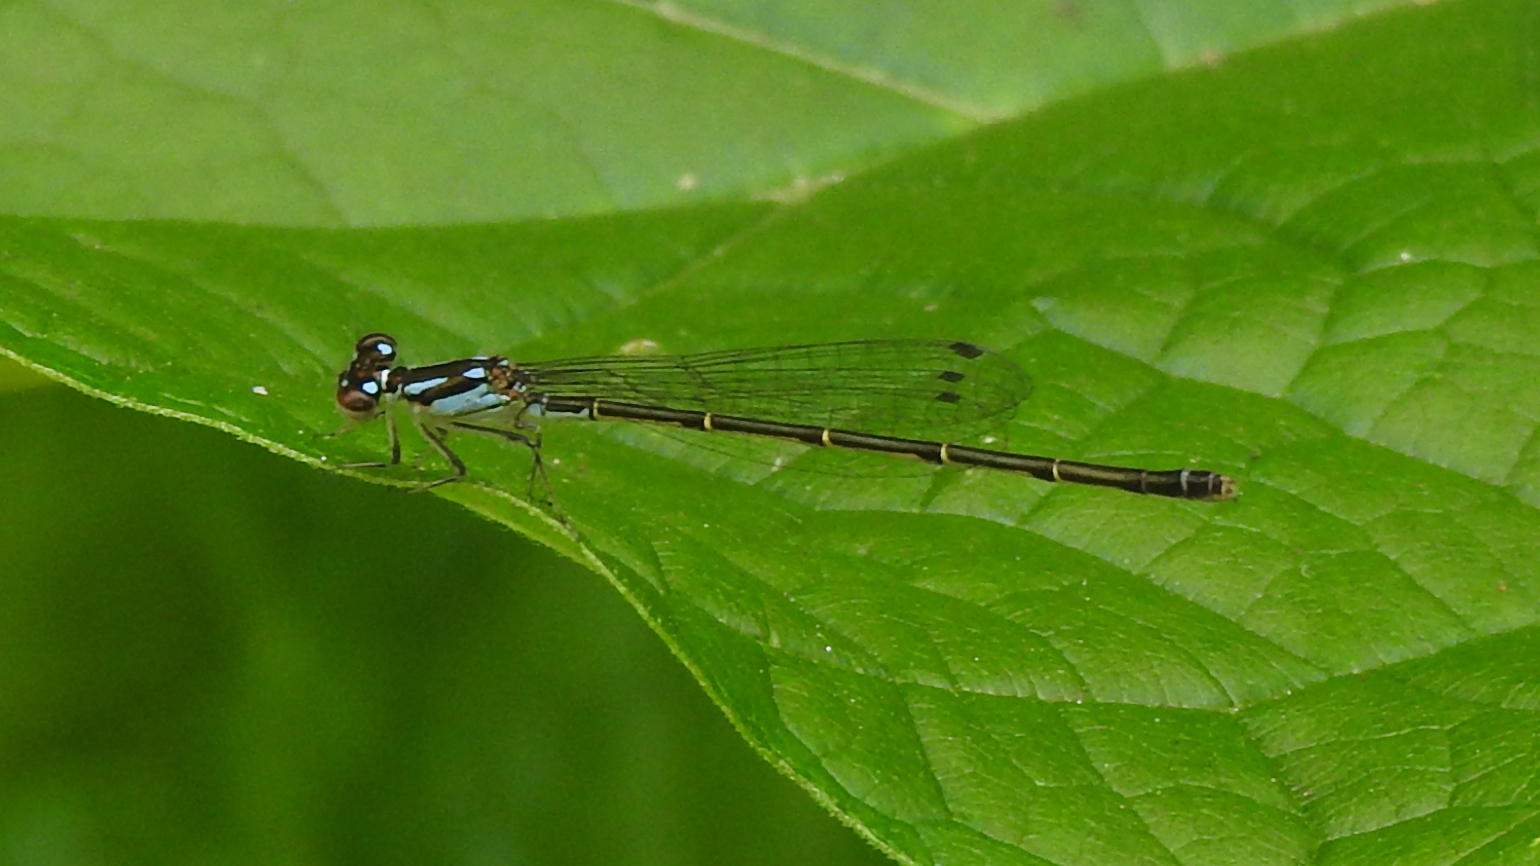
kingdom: Animalia
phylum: Arthropoda
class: Insecta
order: Odonata
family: Coenagrionidae
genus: Ischnura
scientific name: Ischnura posita
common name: Fragile forktail
